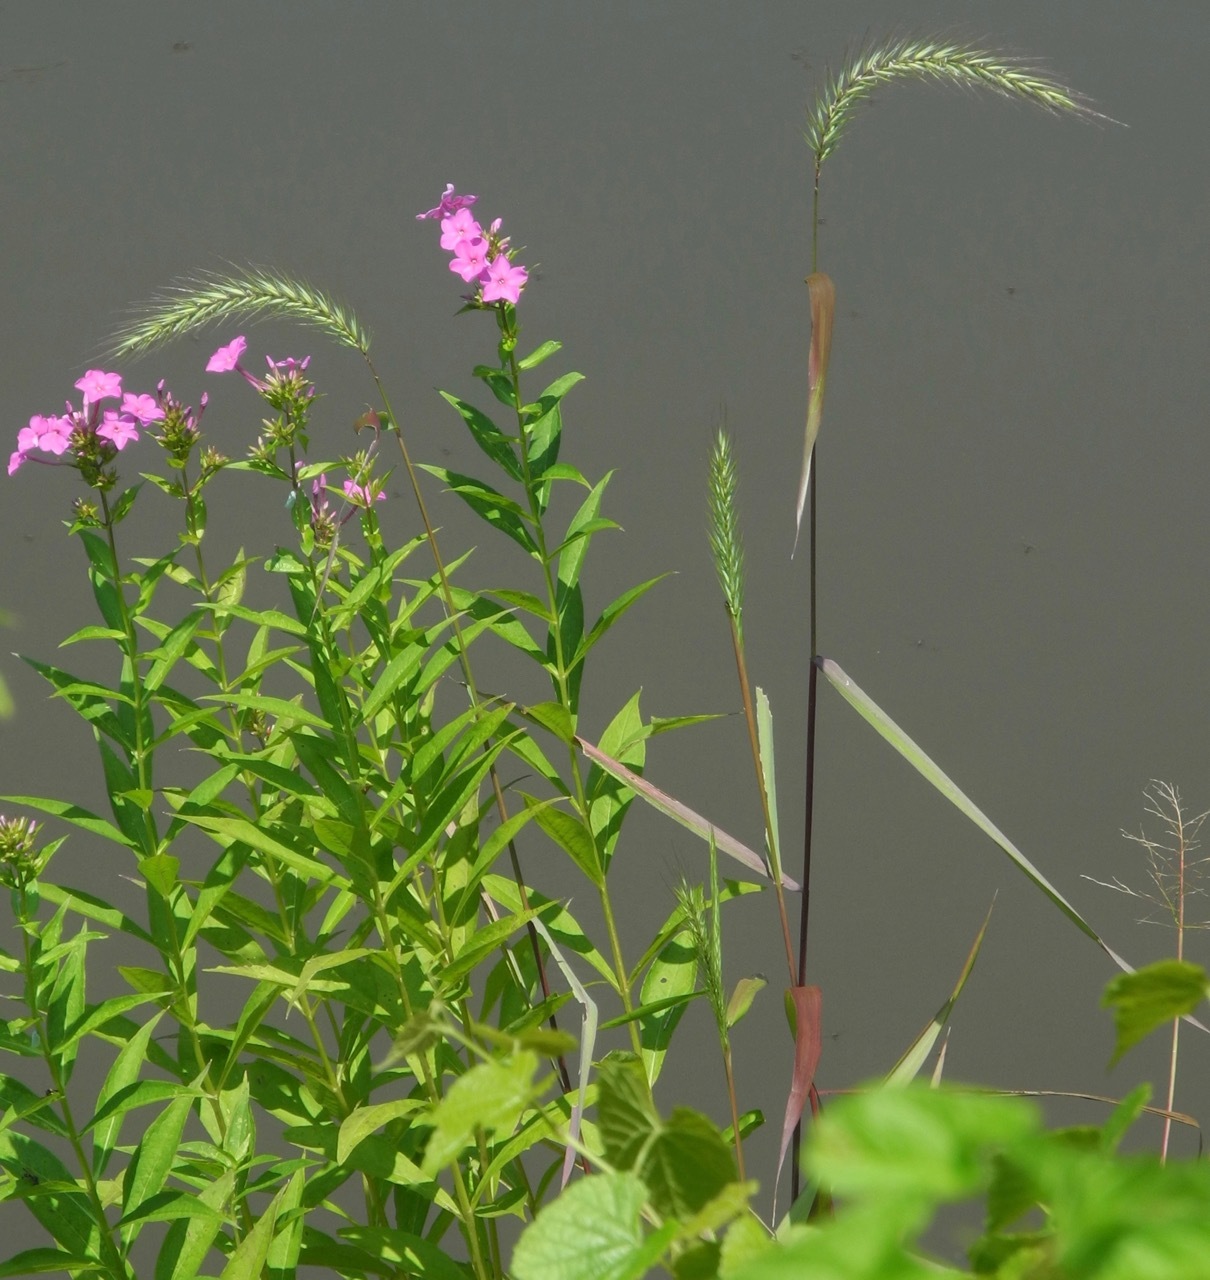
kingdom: Plantae
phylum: Tracheophyta
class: Liliopsida
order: Poales
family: Poaceae
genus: Elymus
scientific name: Elymus riparius
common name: Eastern riverbank wild rye
